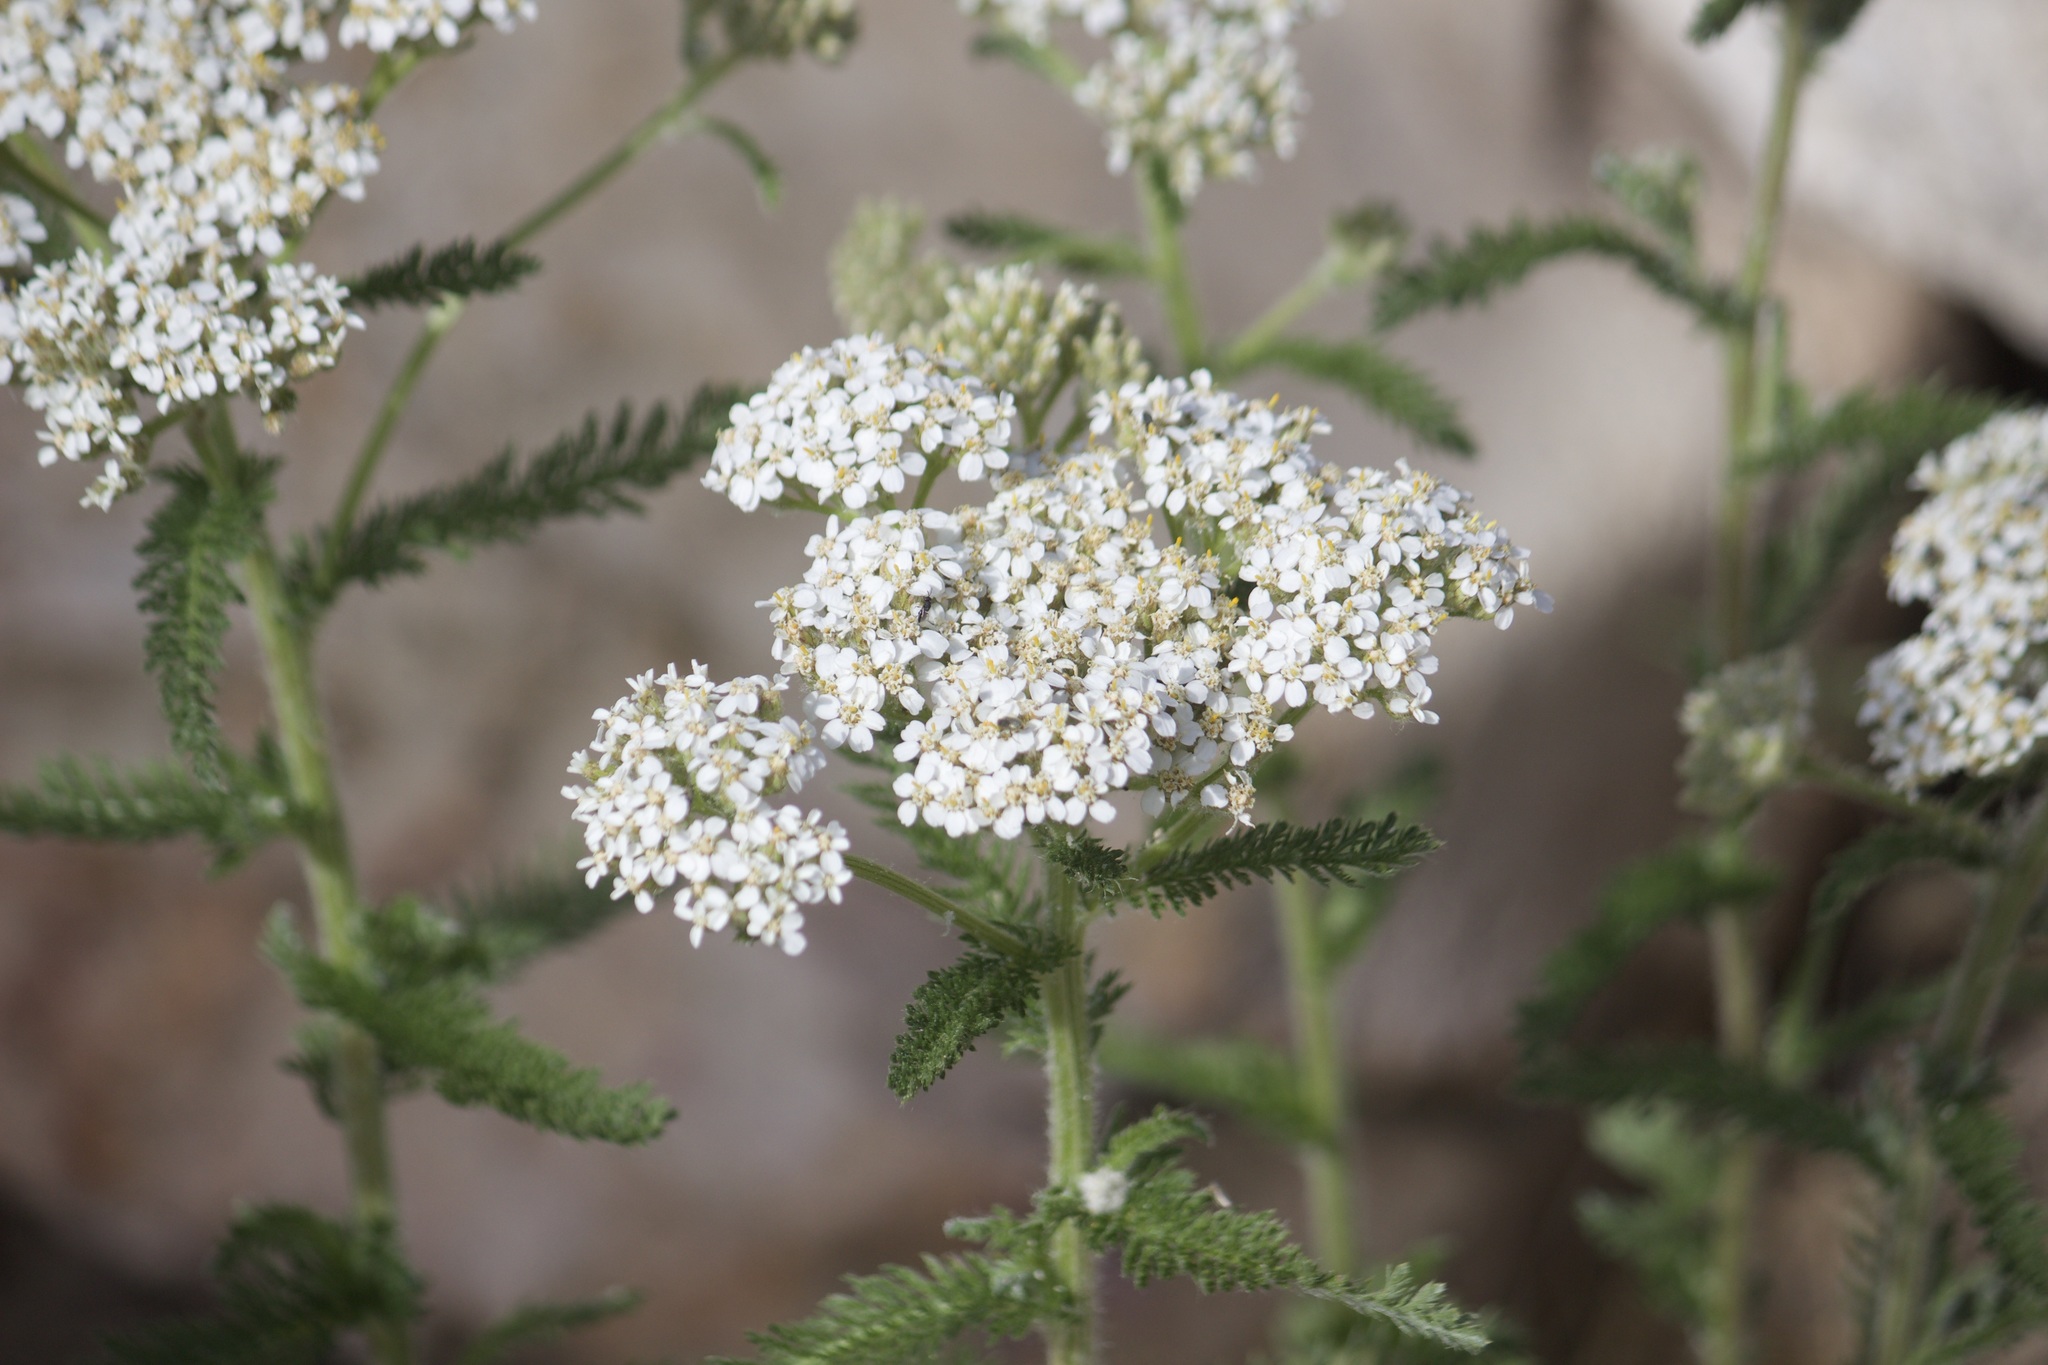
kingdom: Plantae
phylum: Tracheophyta
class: Magnoliopsida
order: Asterales
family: Asteraceae
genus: Achillea
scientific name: Achillea millefolium
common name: Yarrow
